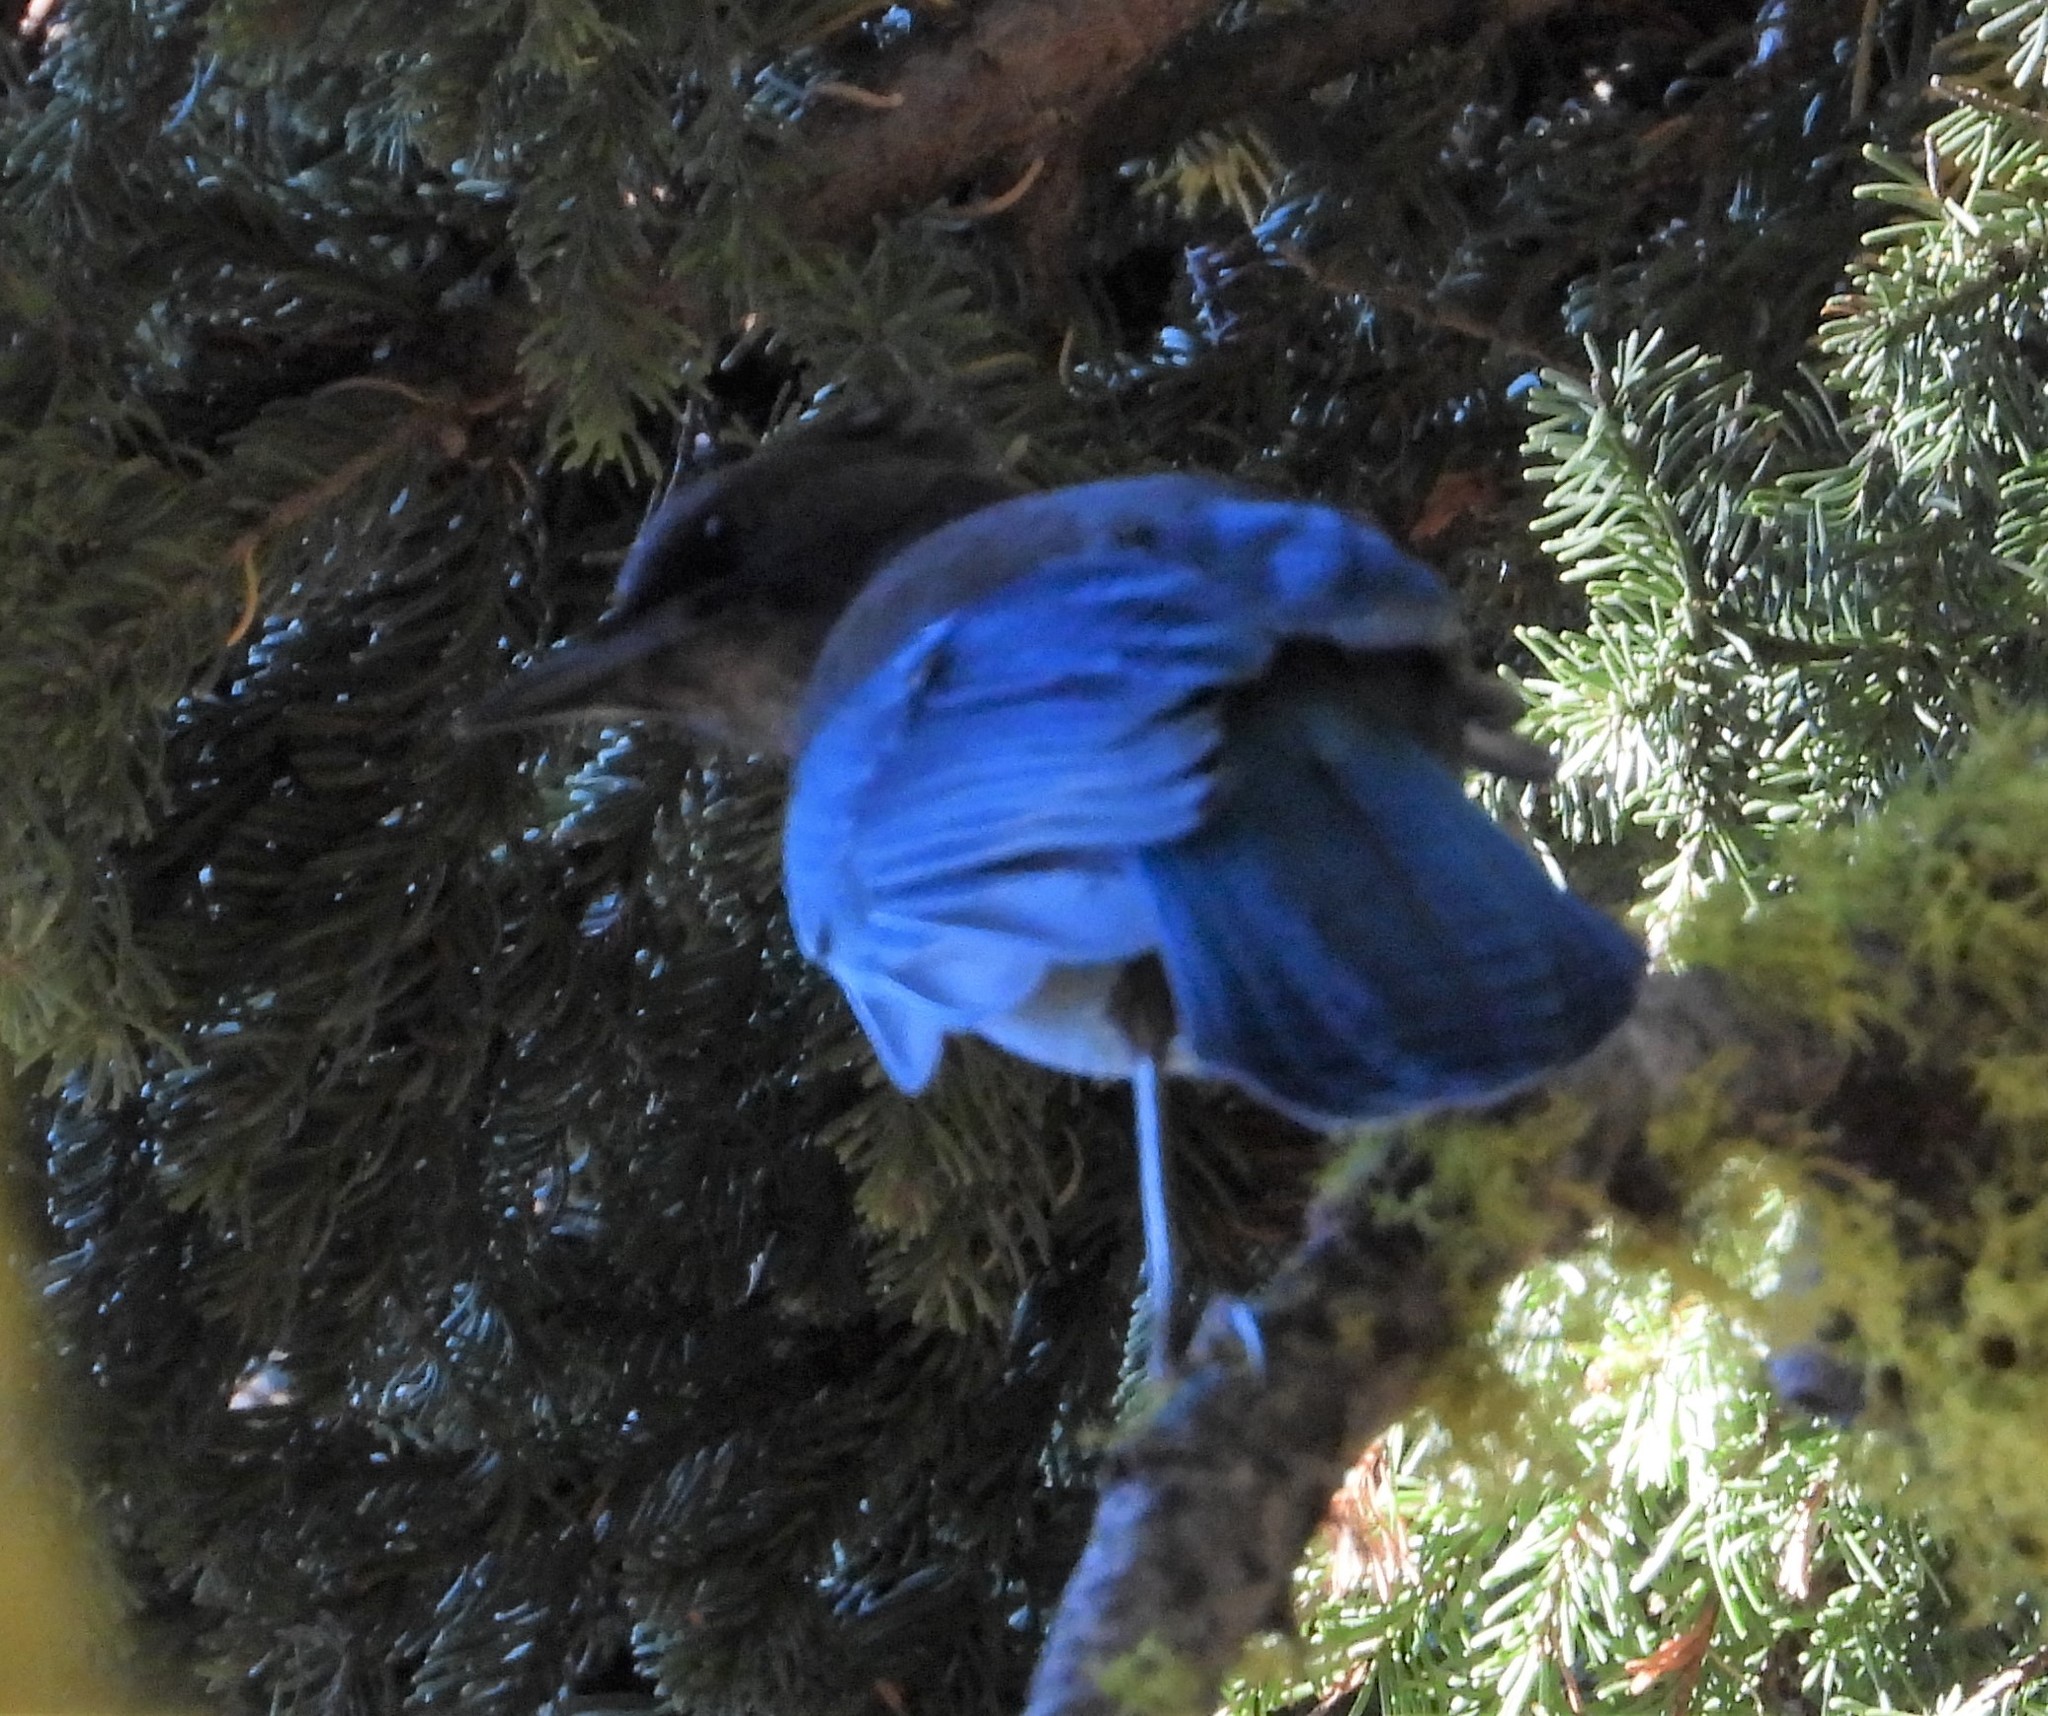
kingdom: Animalia
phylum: Chordata
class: Aves
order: Passeriformes
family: Corvidae
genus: Cyanocitta
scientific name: Cyanocitta stelleri
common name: Steller's jay
